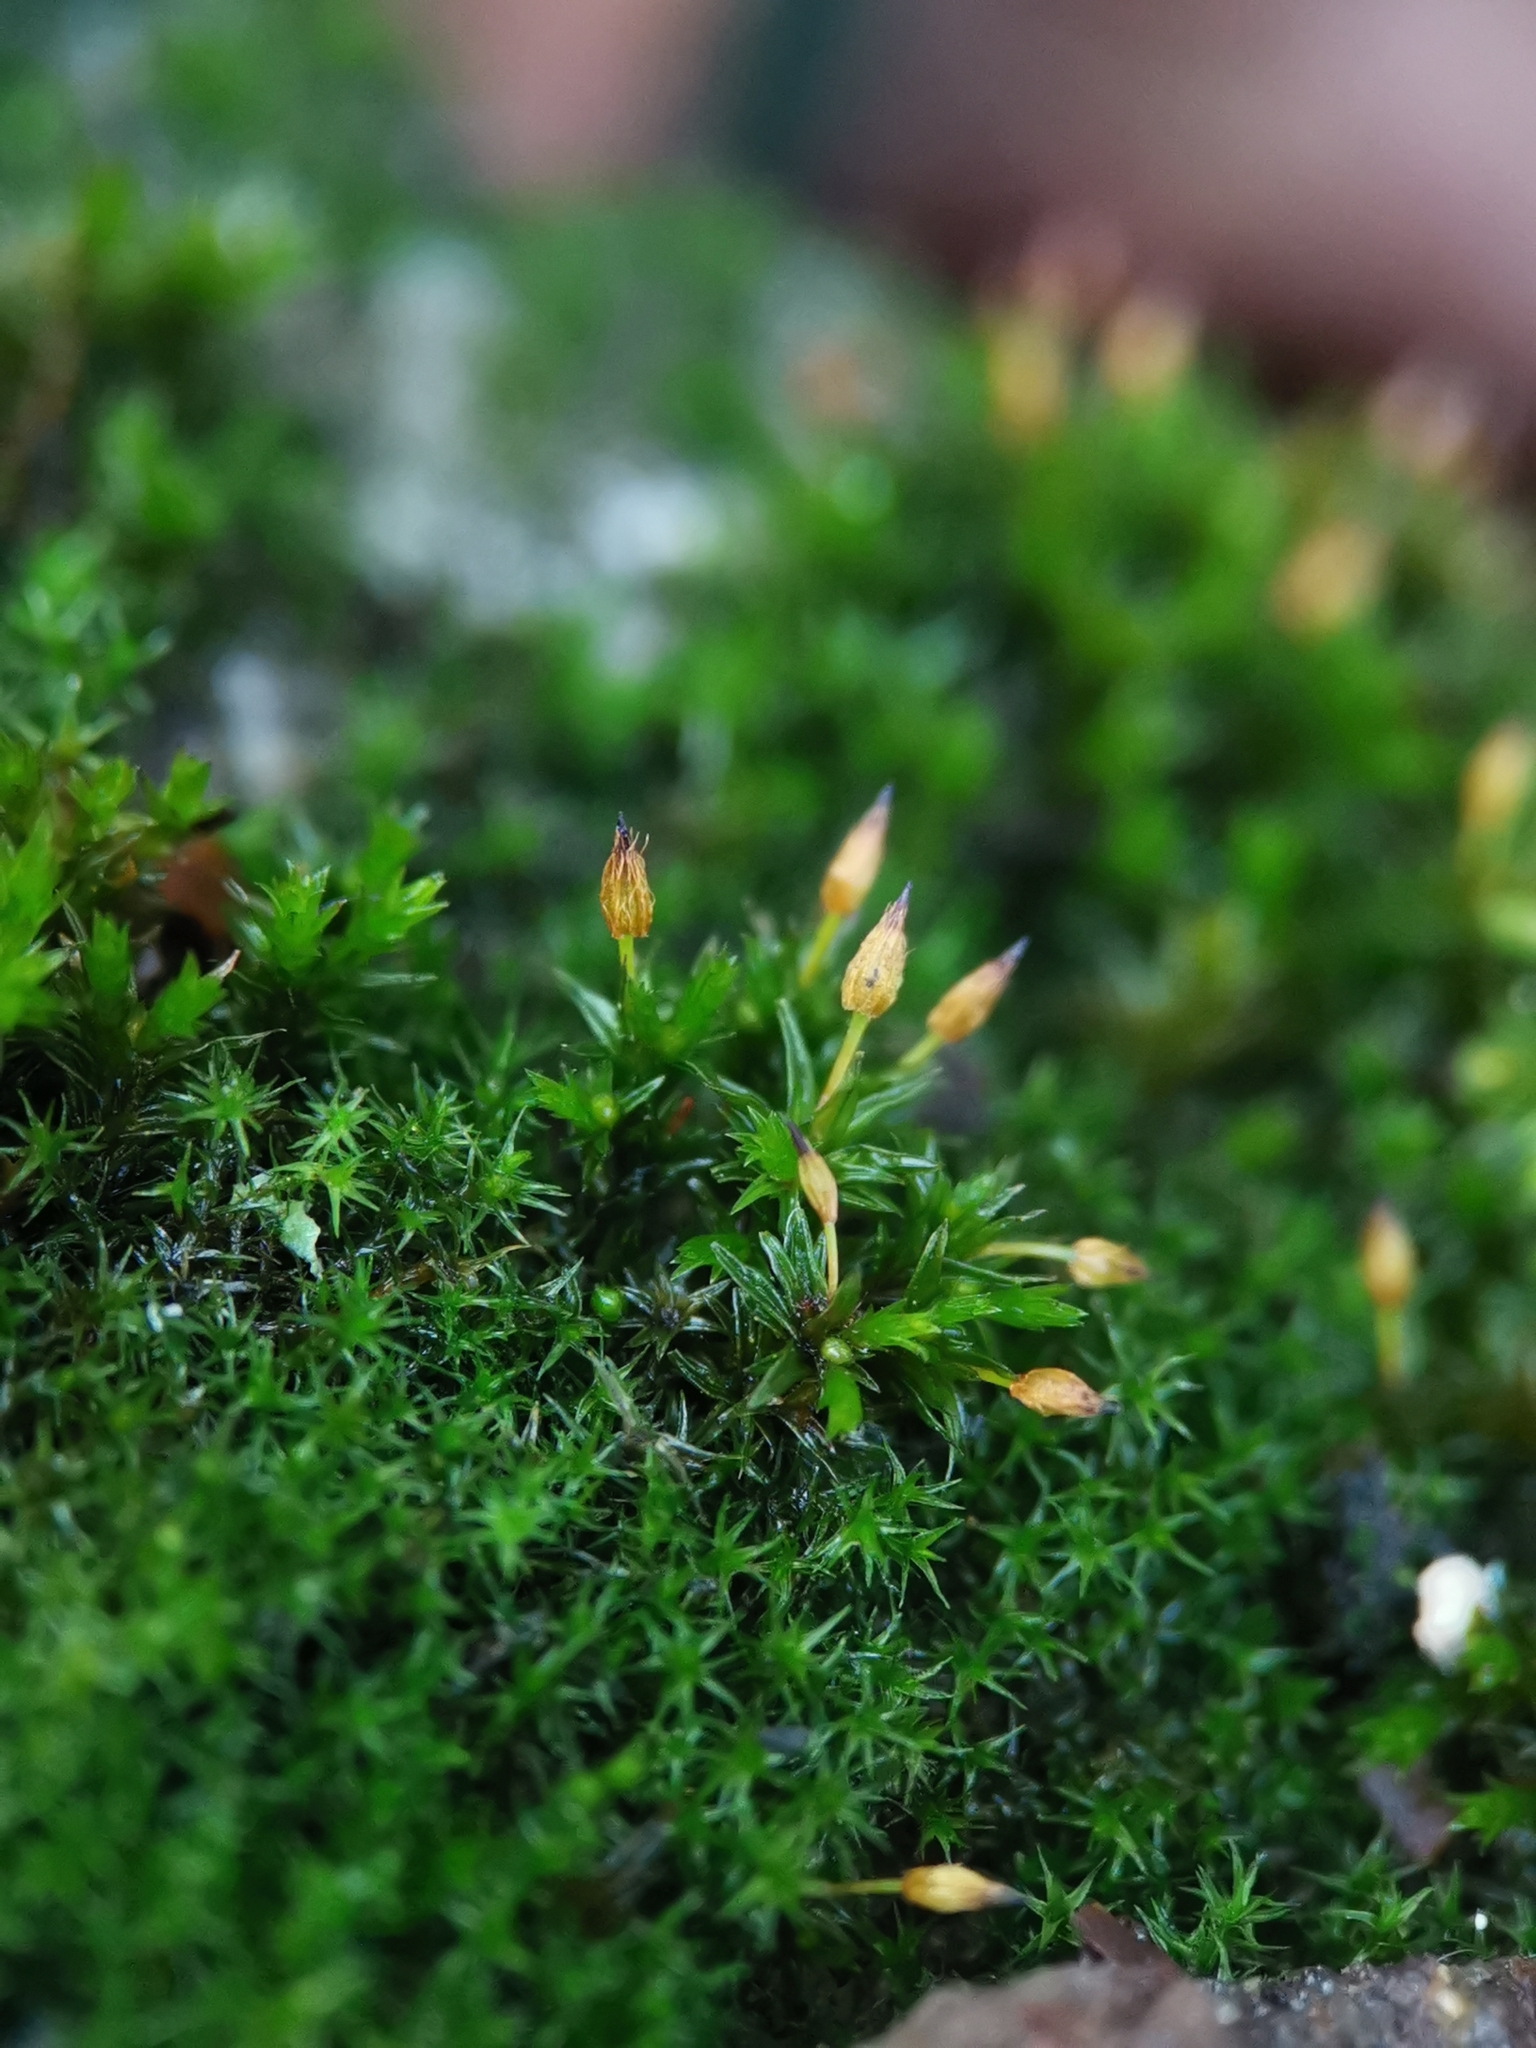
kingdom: Plantae
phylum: Bryophyta
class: Bryopsida
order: Orthotrichales
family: Orthotrichaceae
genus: Orthotrichum
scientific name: Orthotrichum anomalum
